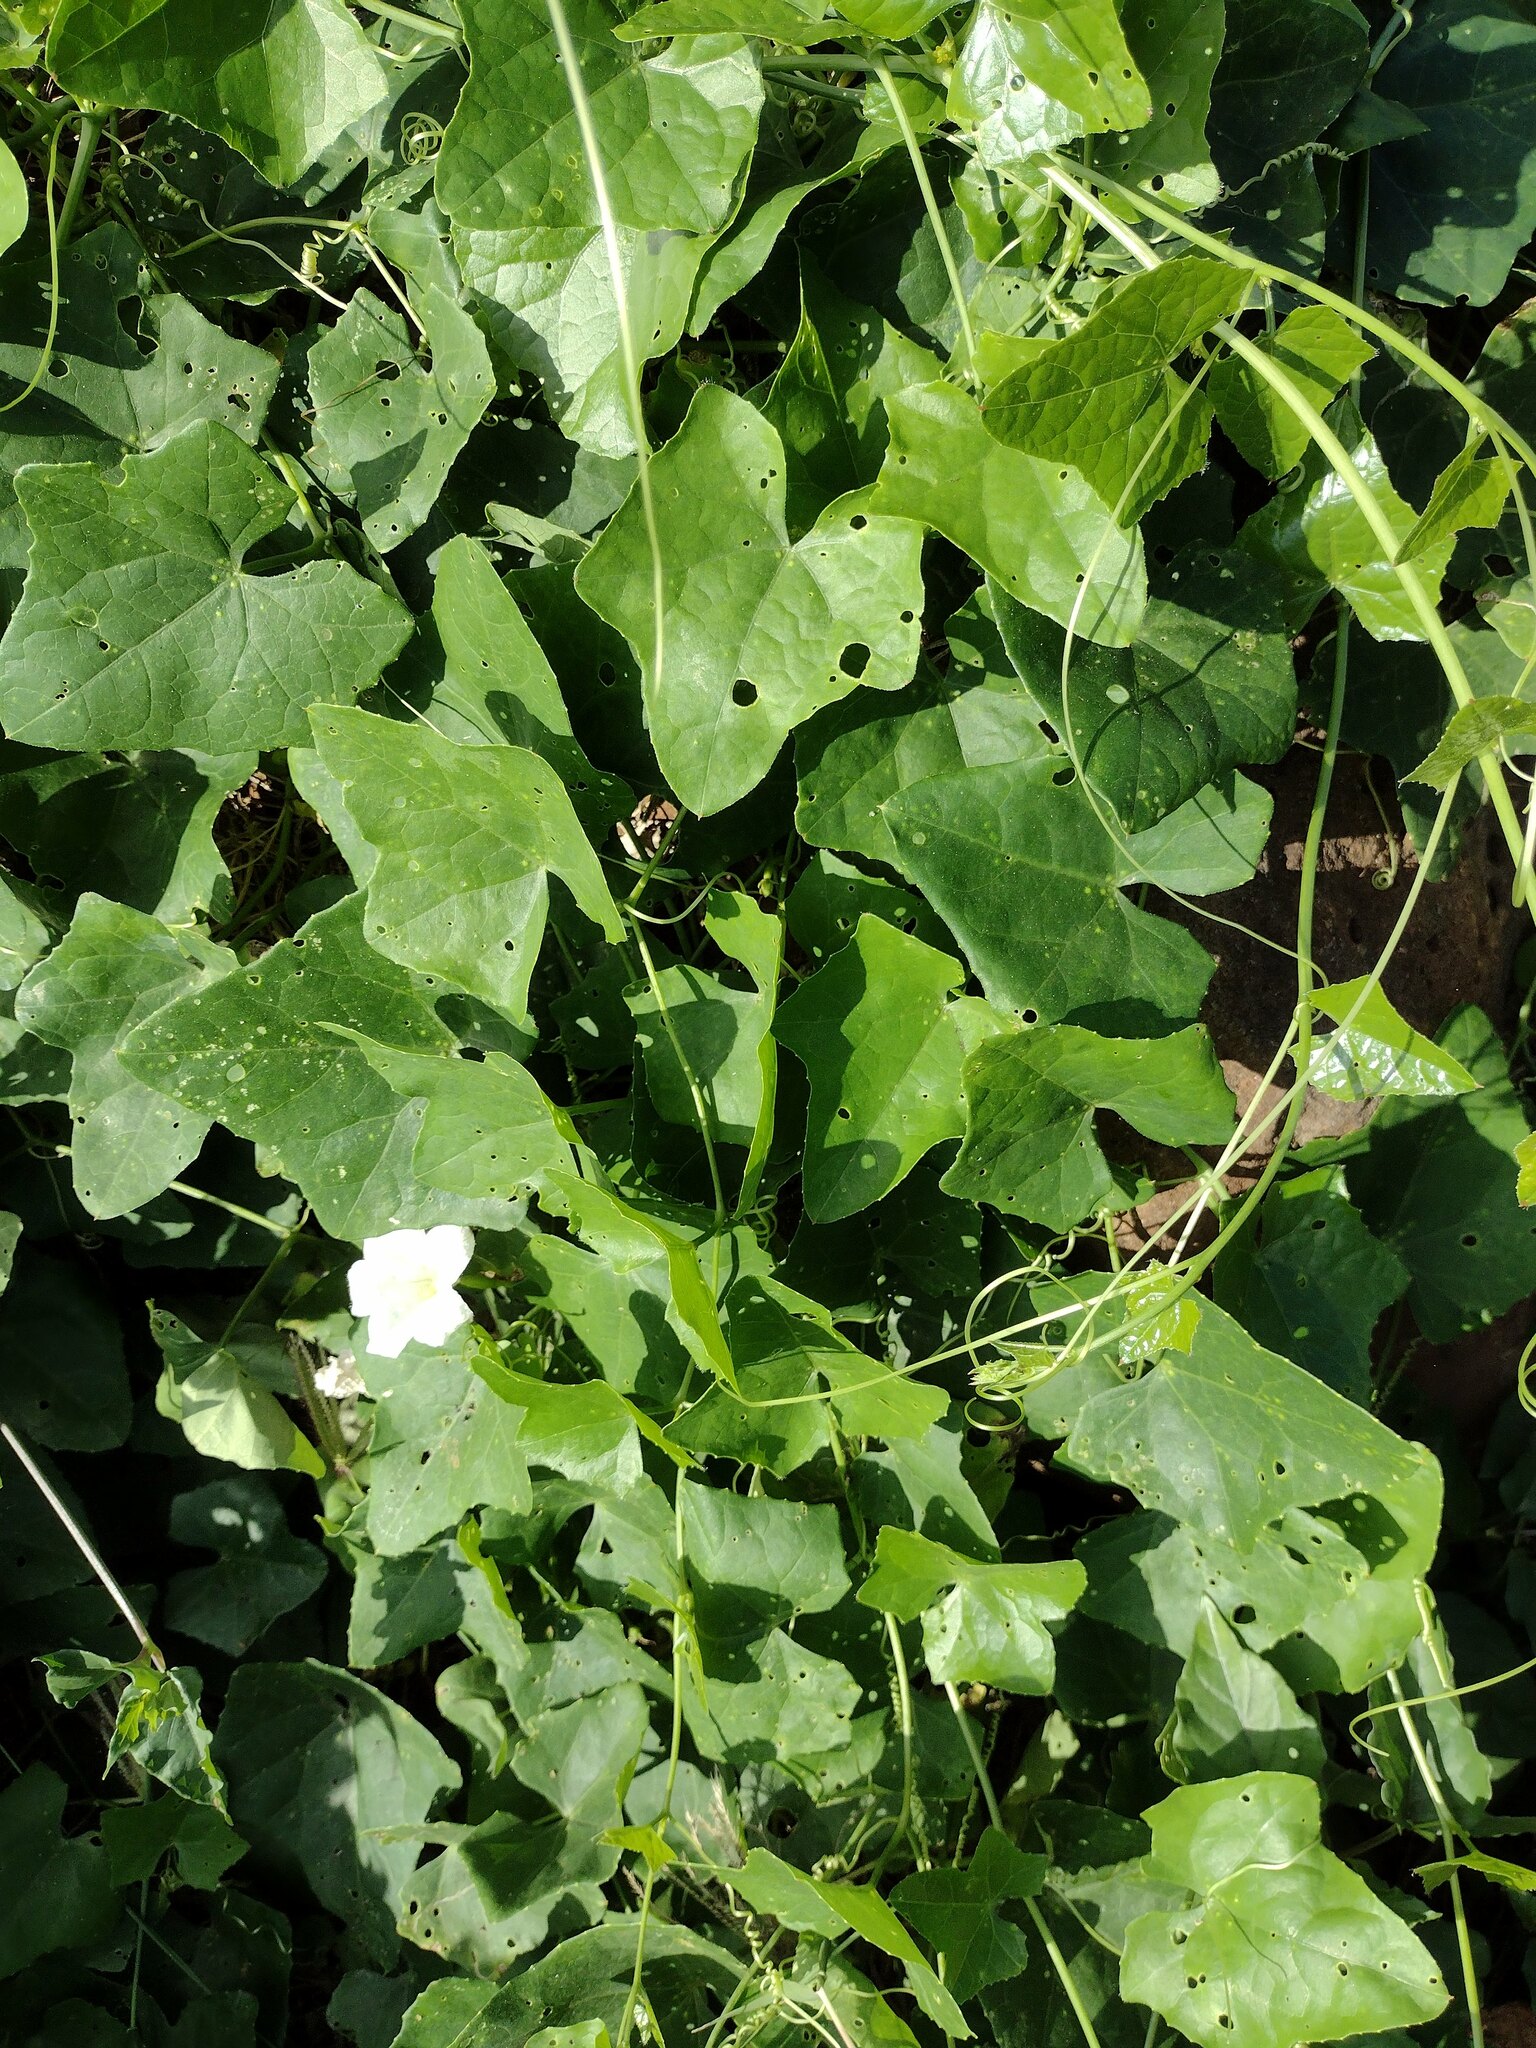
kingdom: Plantae
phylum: Tracheophyta
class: Magnoliopsida
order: Cucurbitales
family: Cucurbitaceae
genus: Coccinia
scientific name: Coccinia grandis
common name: Ivy gourd
